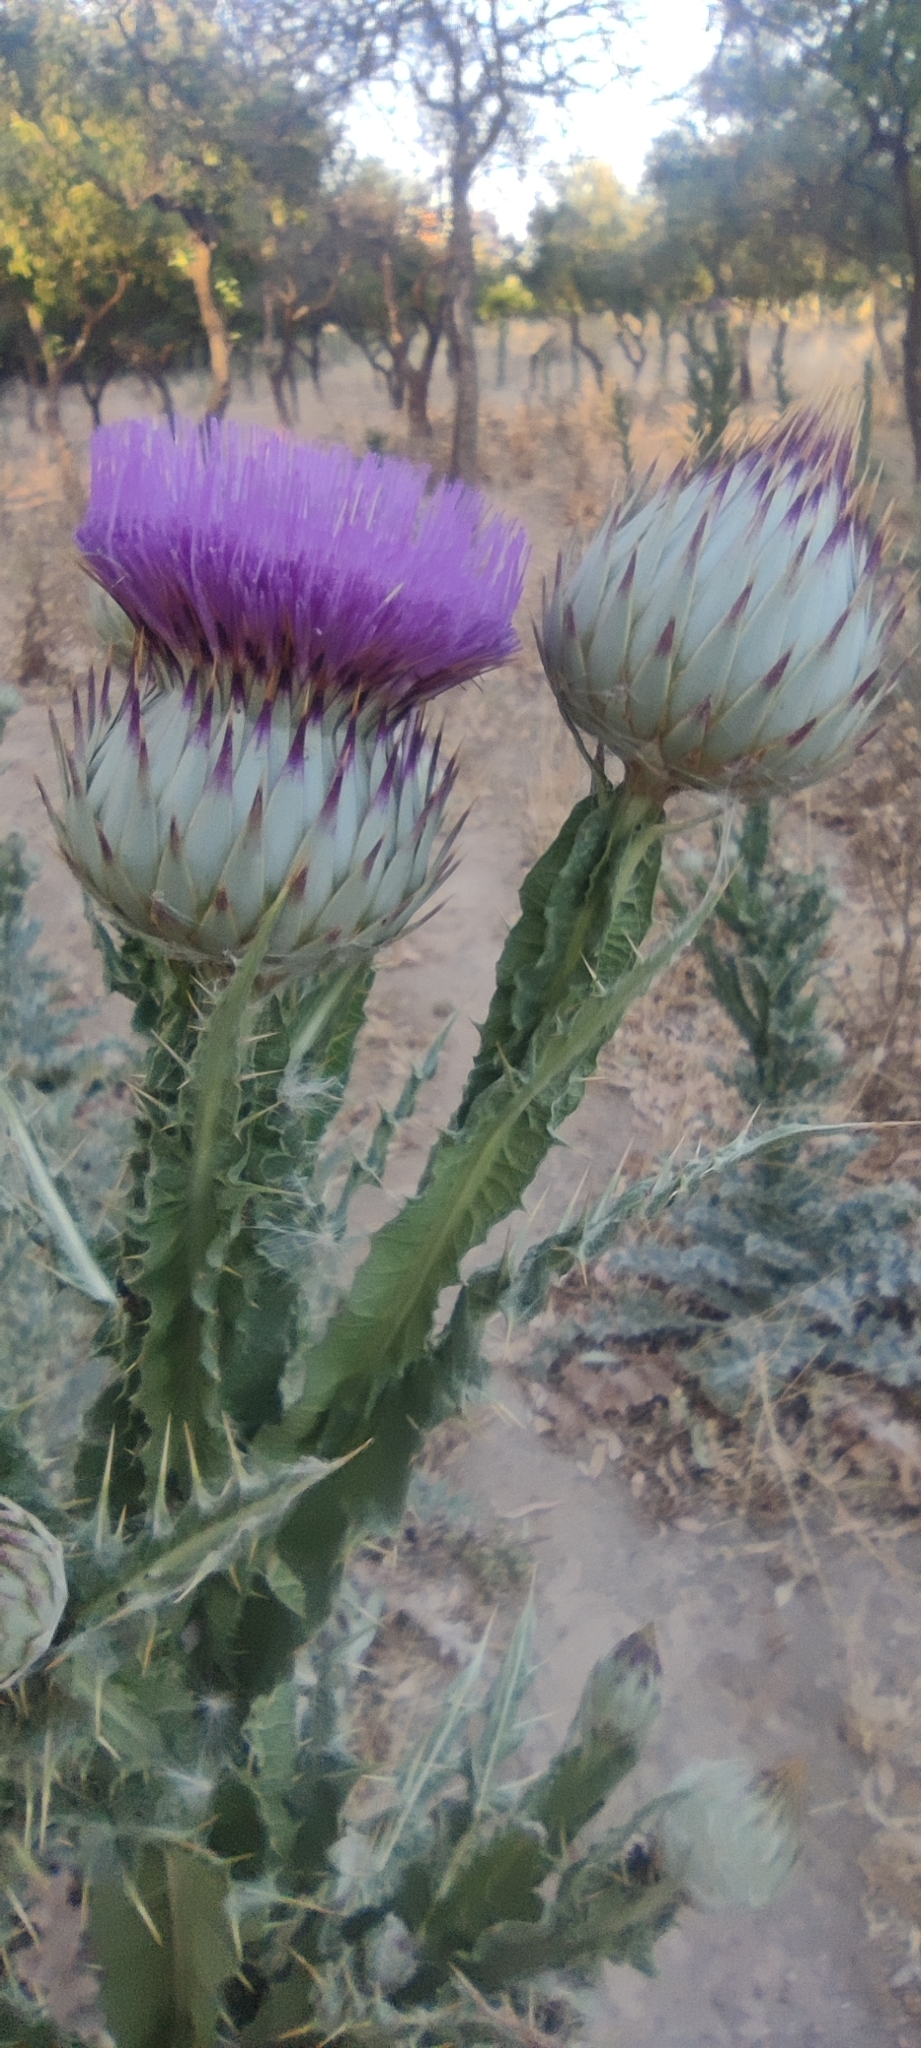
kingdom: Plantae
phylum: Tracheophyta
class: Magnoliopsida
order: Asterales
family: Asteraceae
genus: Onopordum
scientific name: Onopordum nervosum
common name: Reticulate thistle
